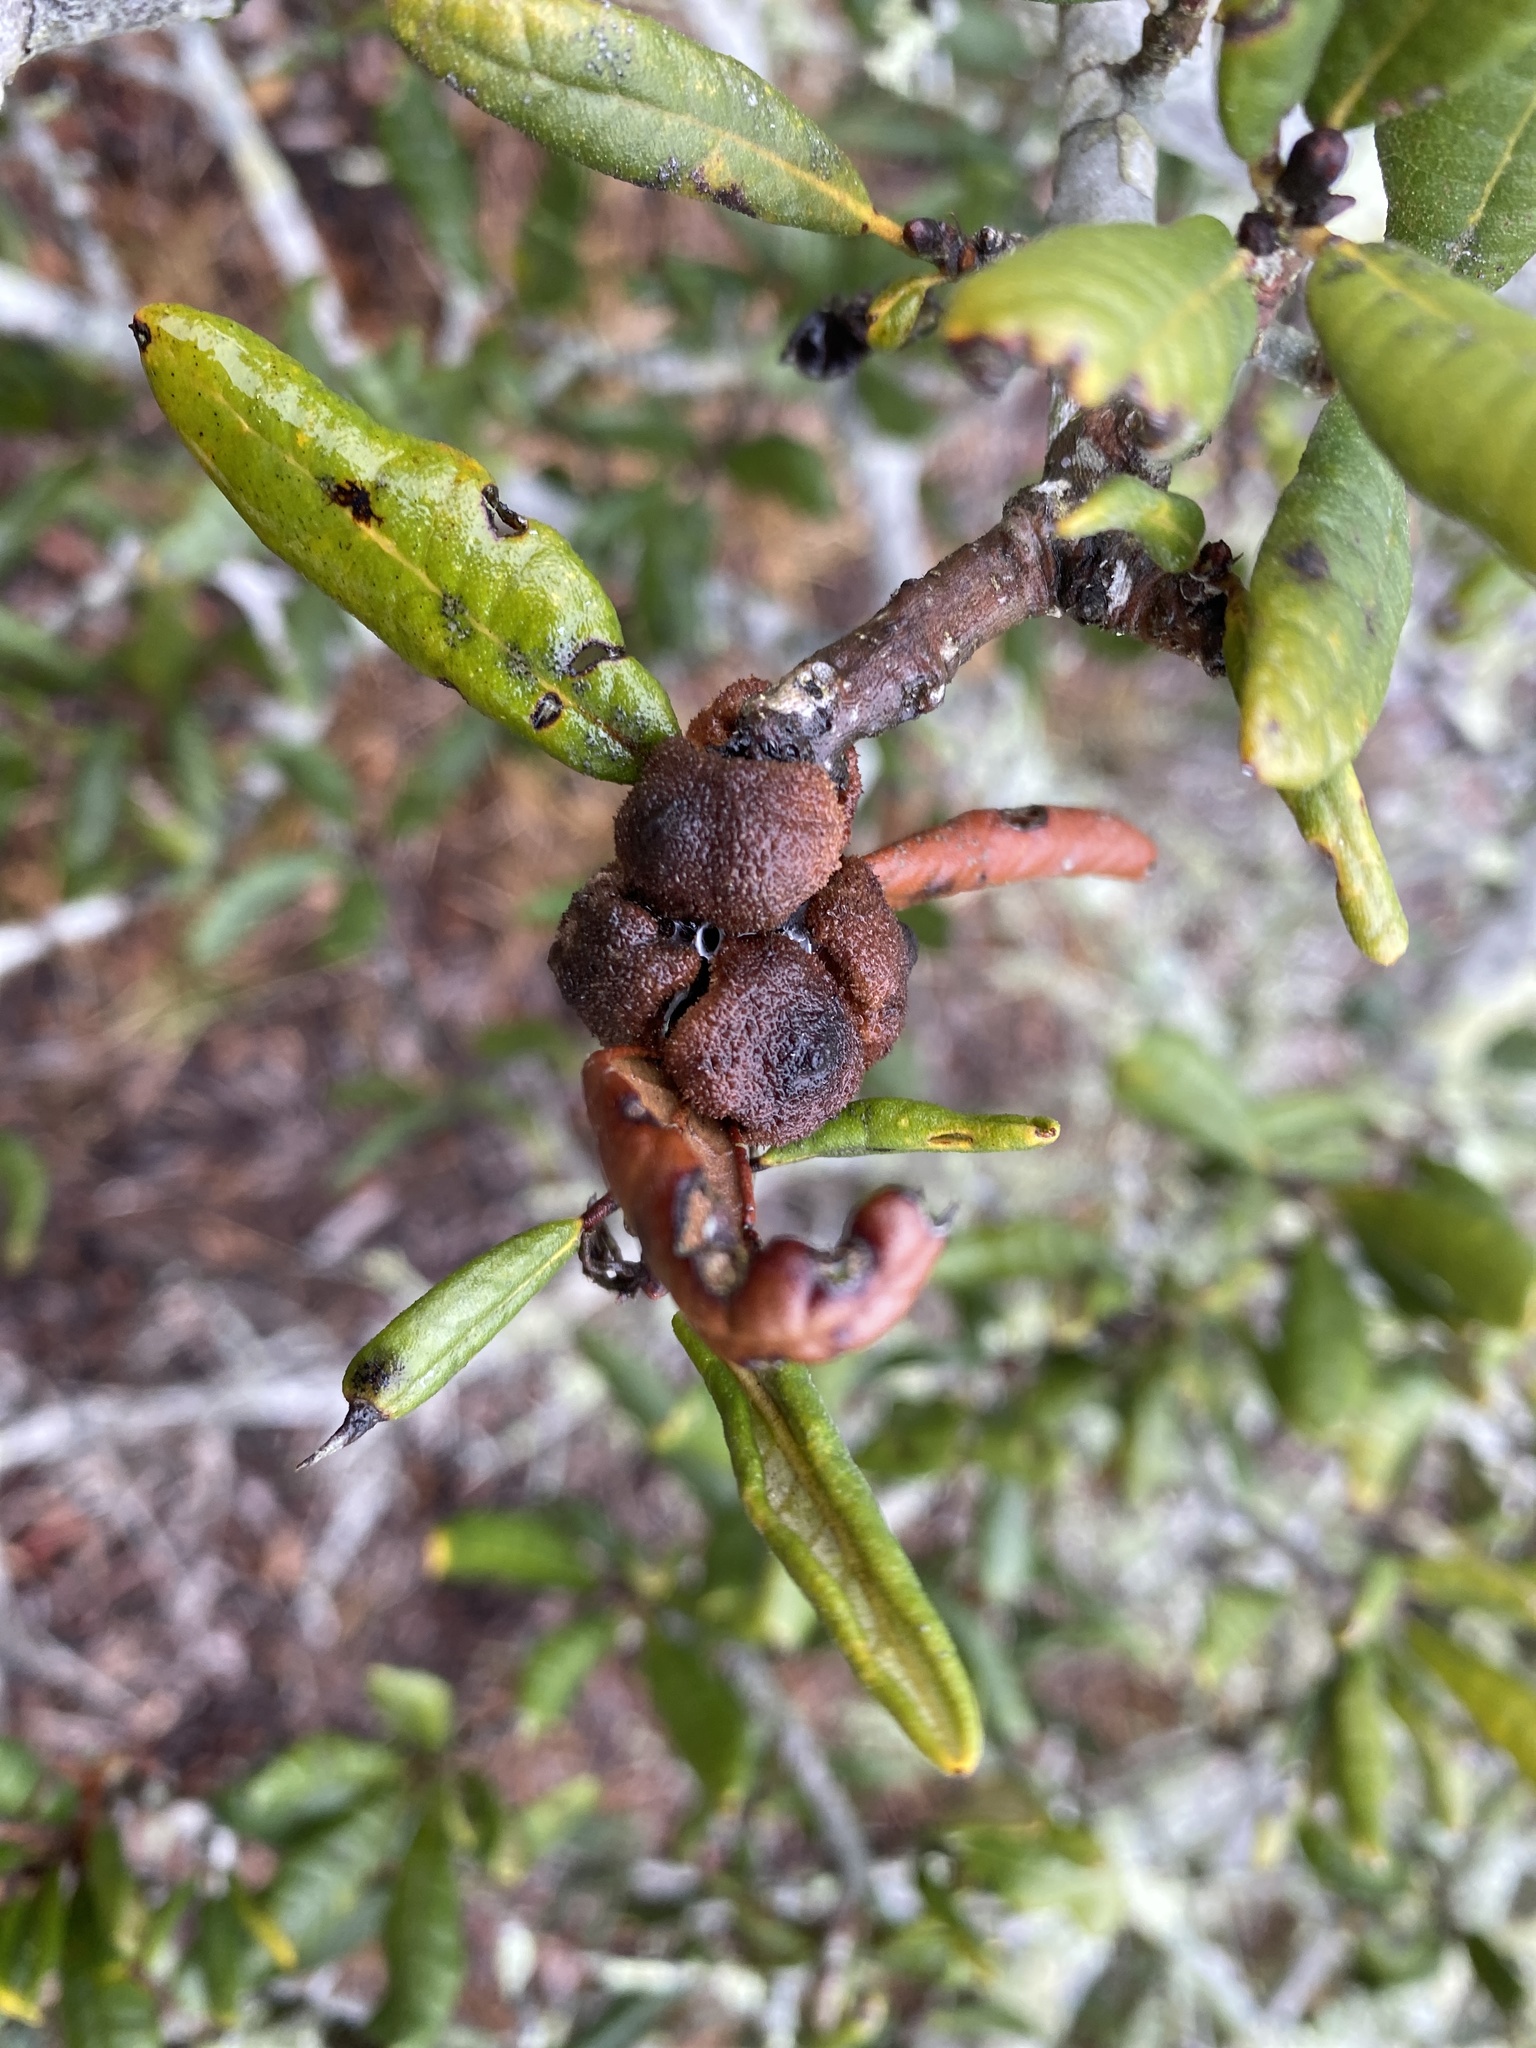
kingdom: Animalia
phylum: Arthropoda
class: Insecta
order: Hymenoptera
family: Cynipidae
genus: Disholcaspis
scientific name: Disholcaspis
